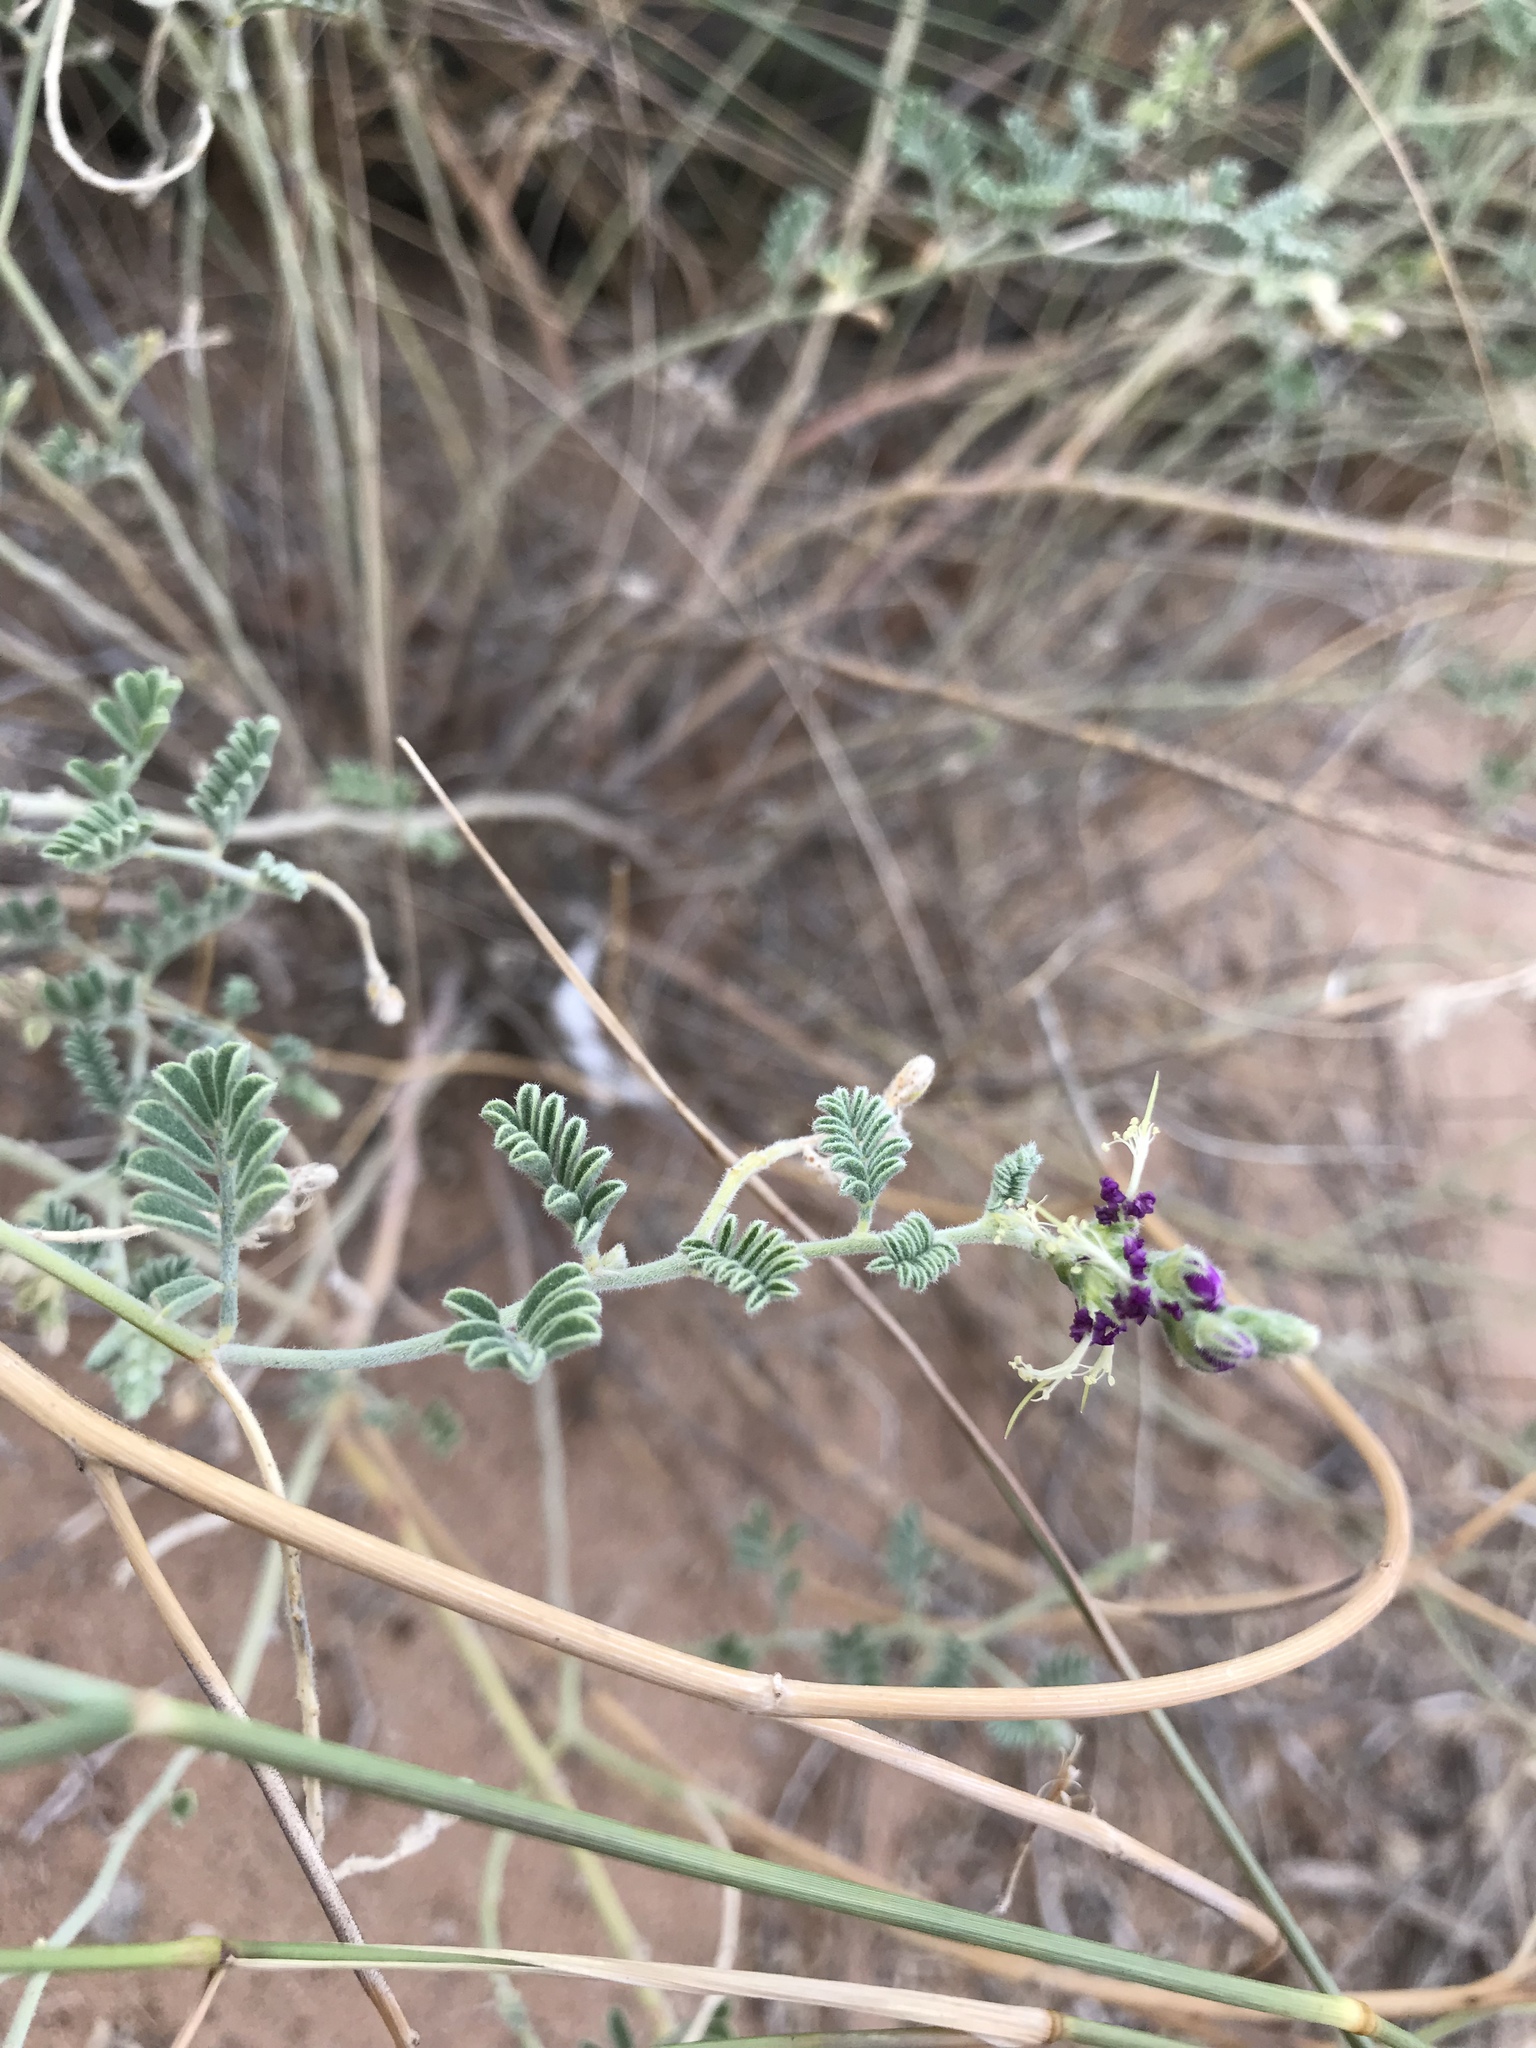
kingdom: Plantae
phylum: Tracheophyta
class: Magnoliopsida
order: Fabales
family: Fabaceae
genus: Dalea
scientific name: Dalea lanata
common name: Woolly dalea
